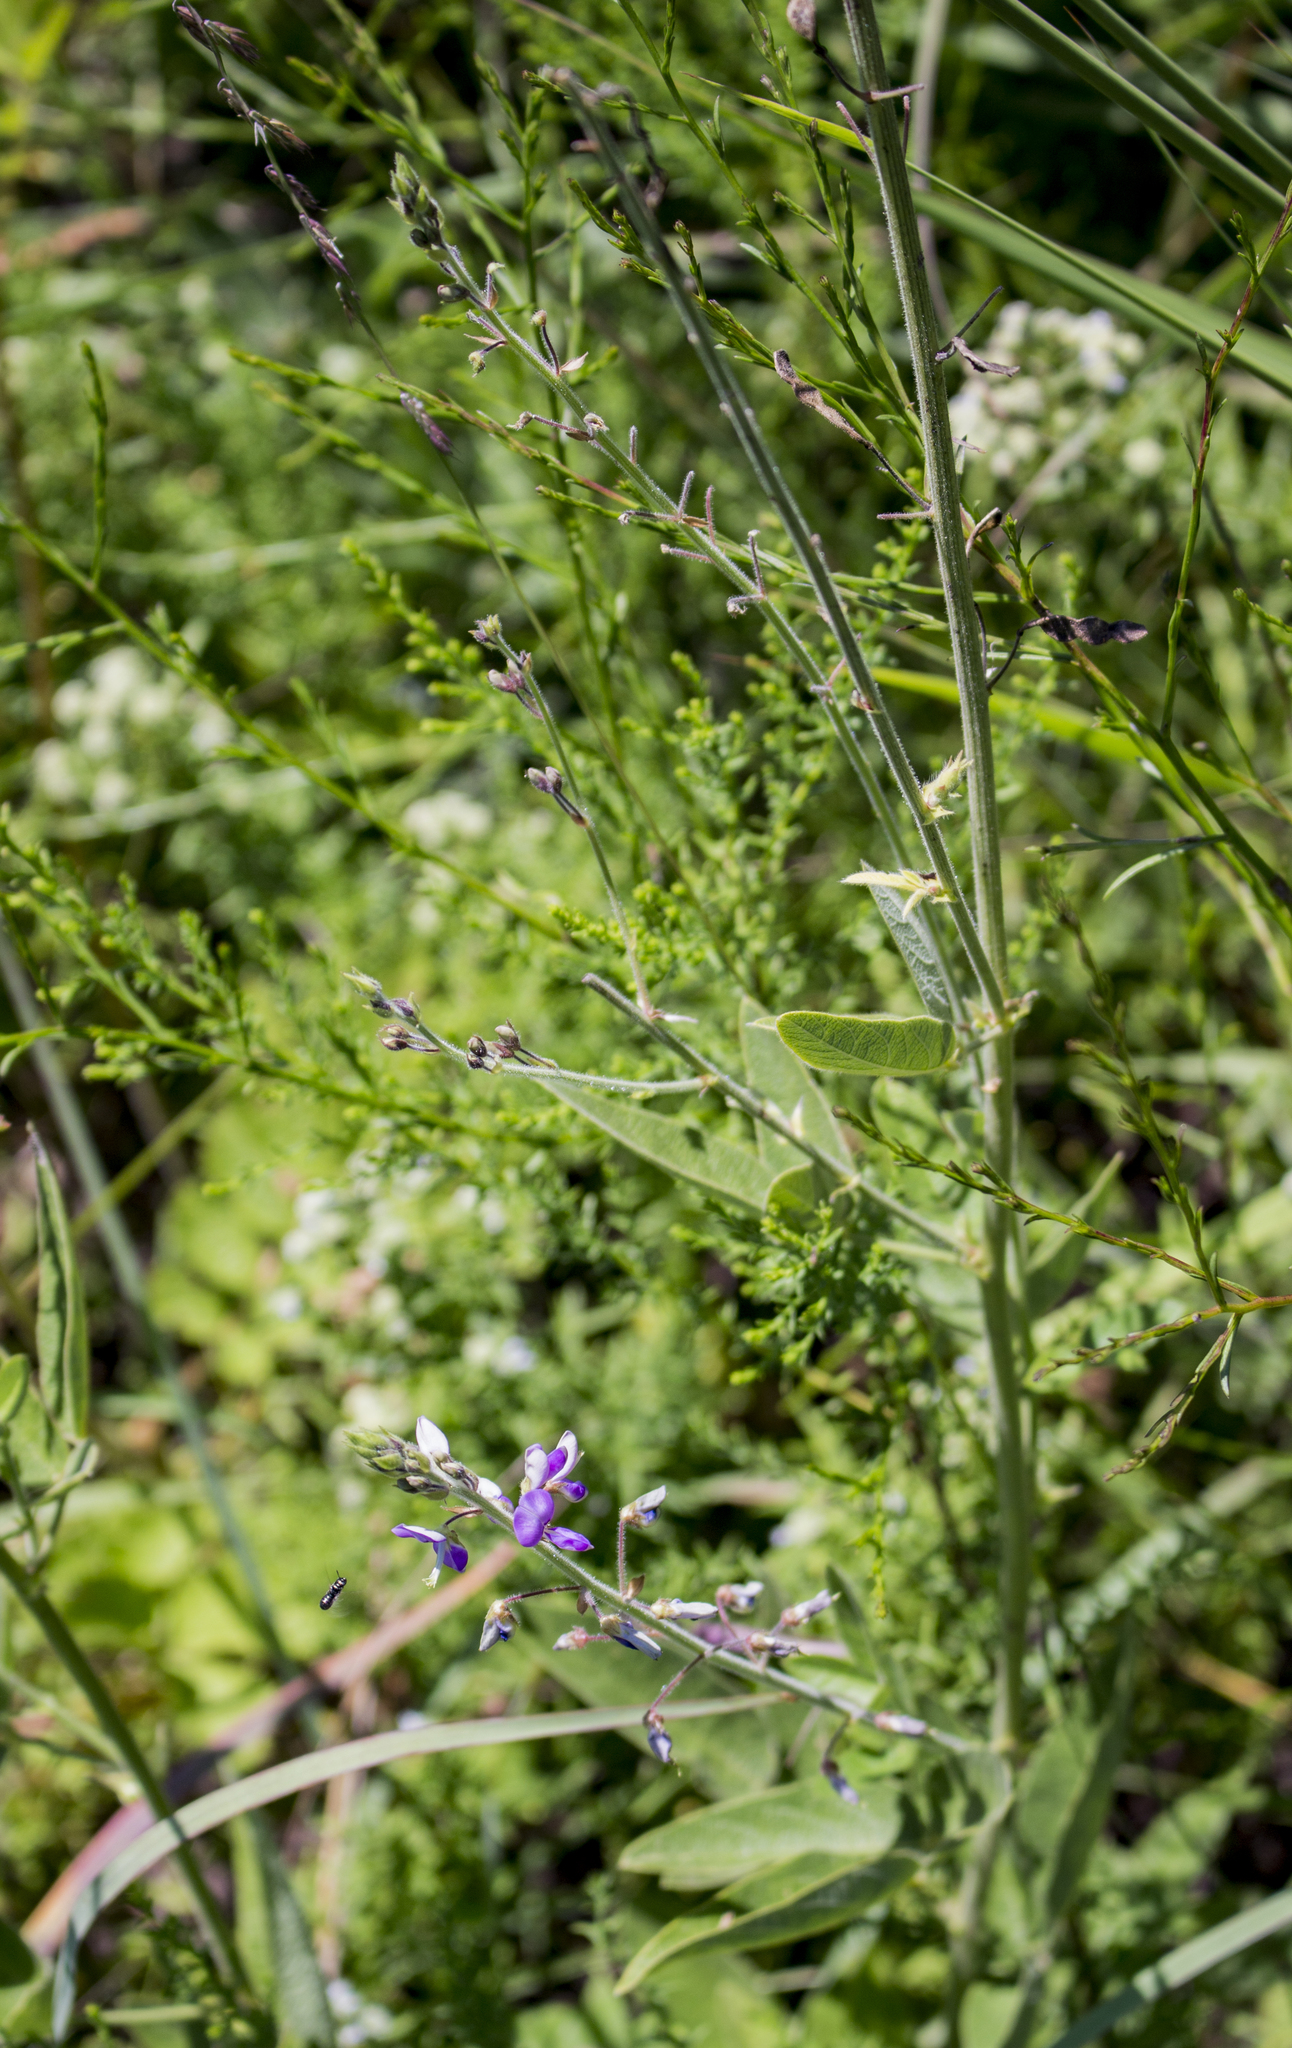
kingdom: Plantae
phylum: Tracheophyta
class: Magnoliopsida
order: Fabales
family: Fabaceae
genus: Desmodium
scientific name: Desmodium illinoense
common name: Illinois tick-clover
